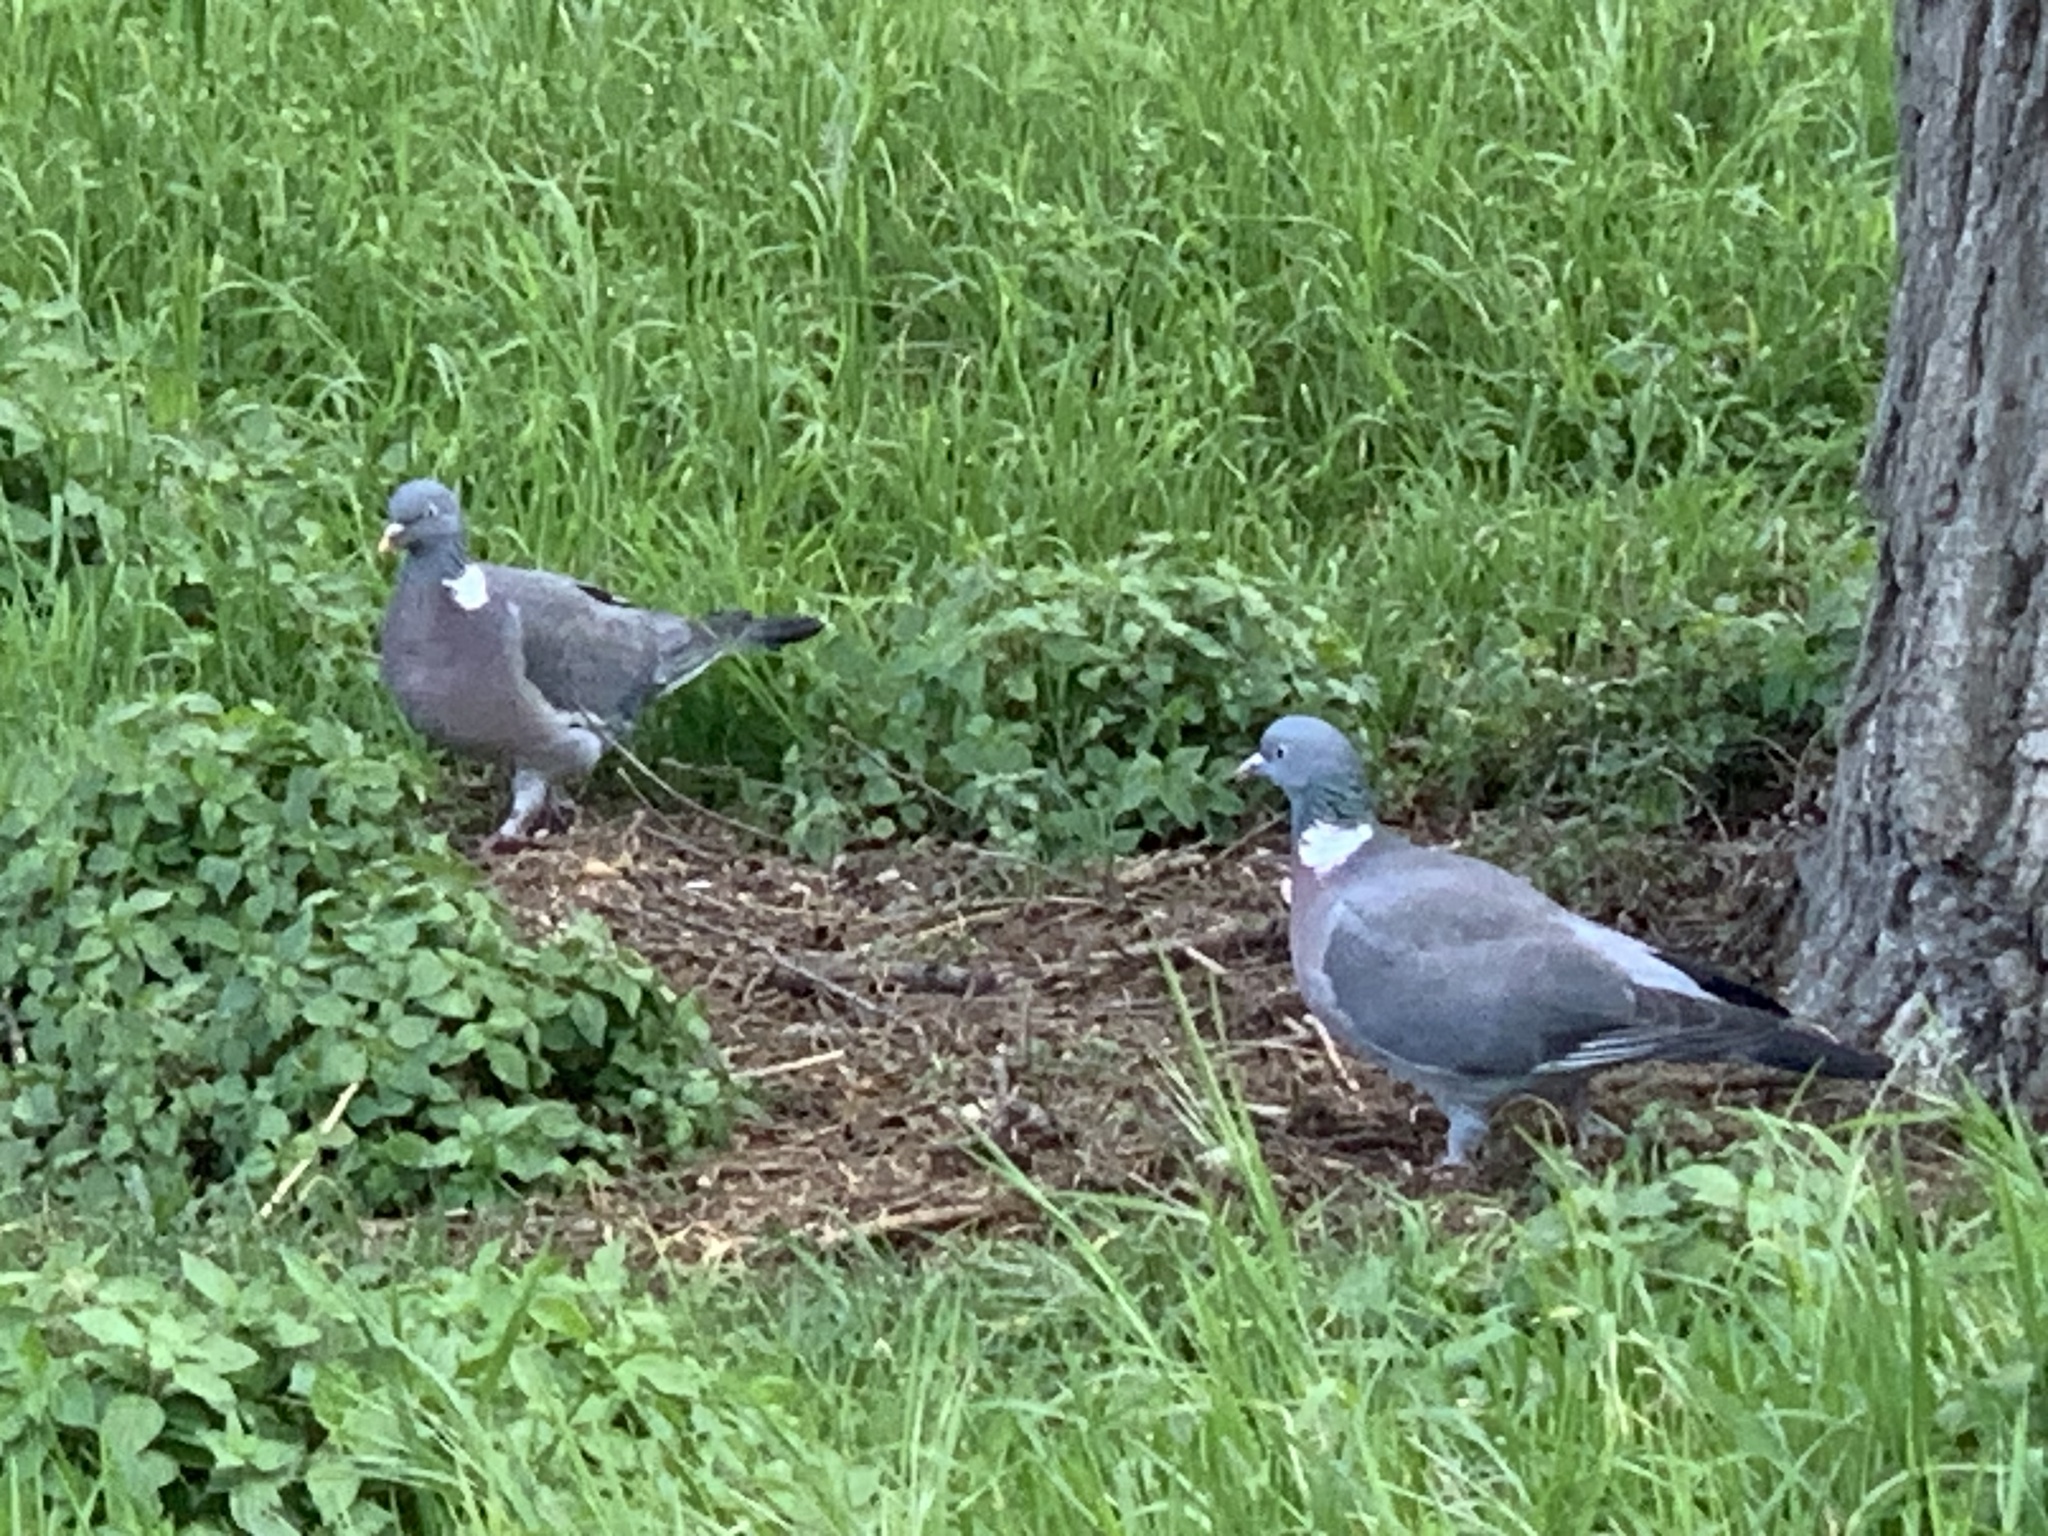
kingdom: Animalia
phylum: Chordata
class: Aves
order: Columbiformes
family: Columbidae
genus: Columba
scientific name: Columba palumbus
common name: Common wood pigeon
